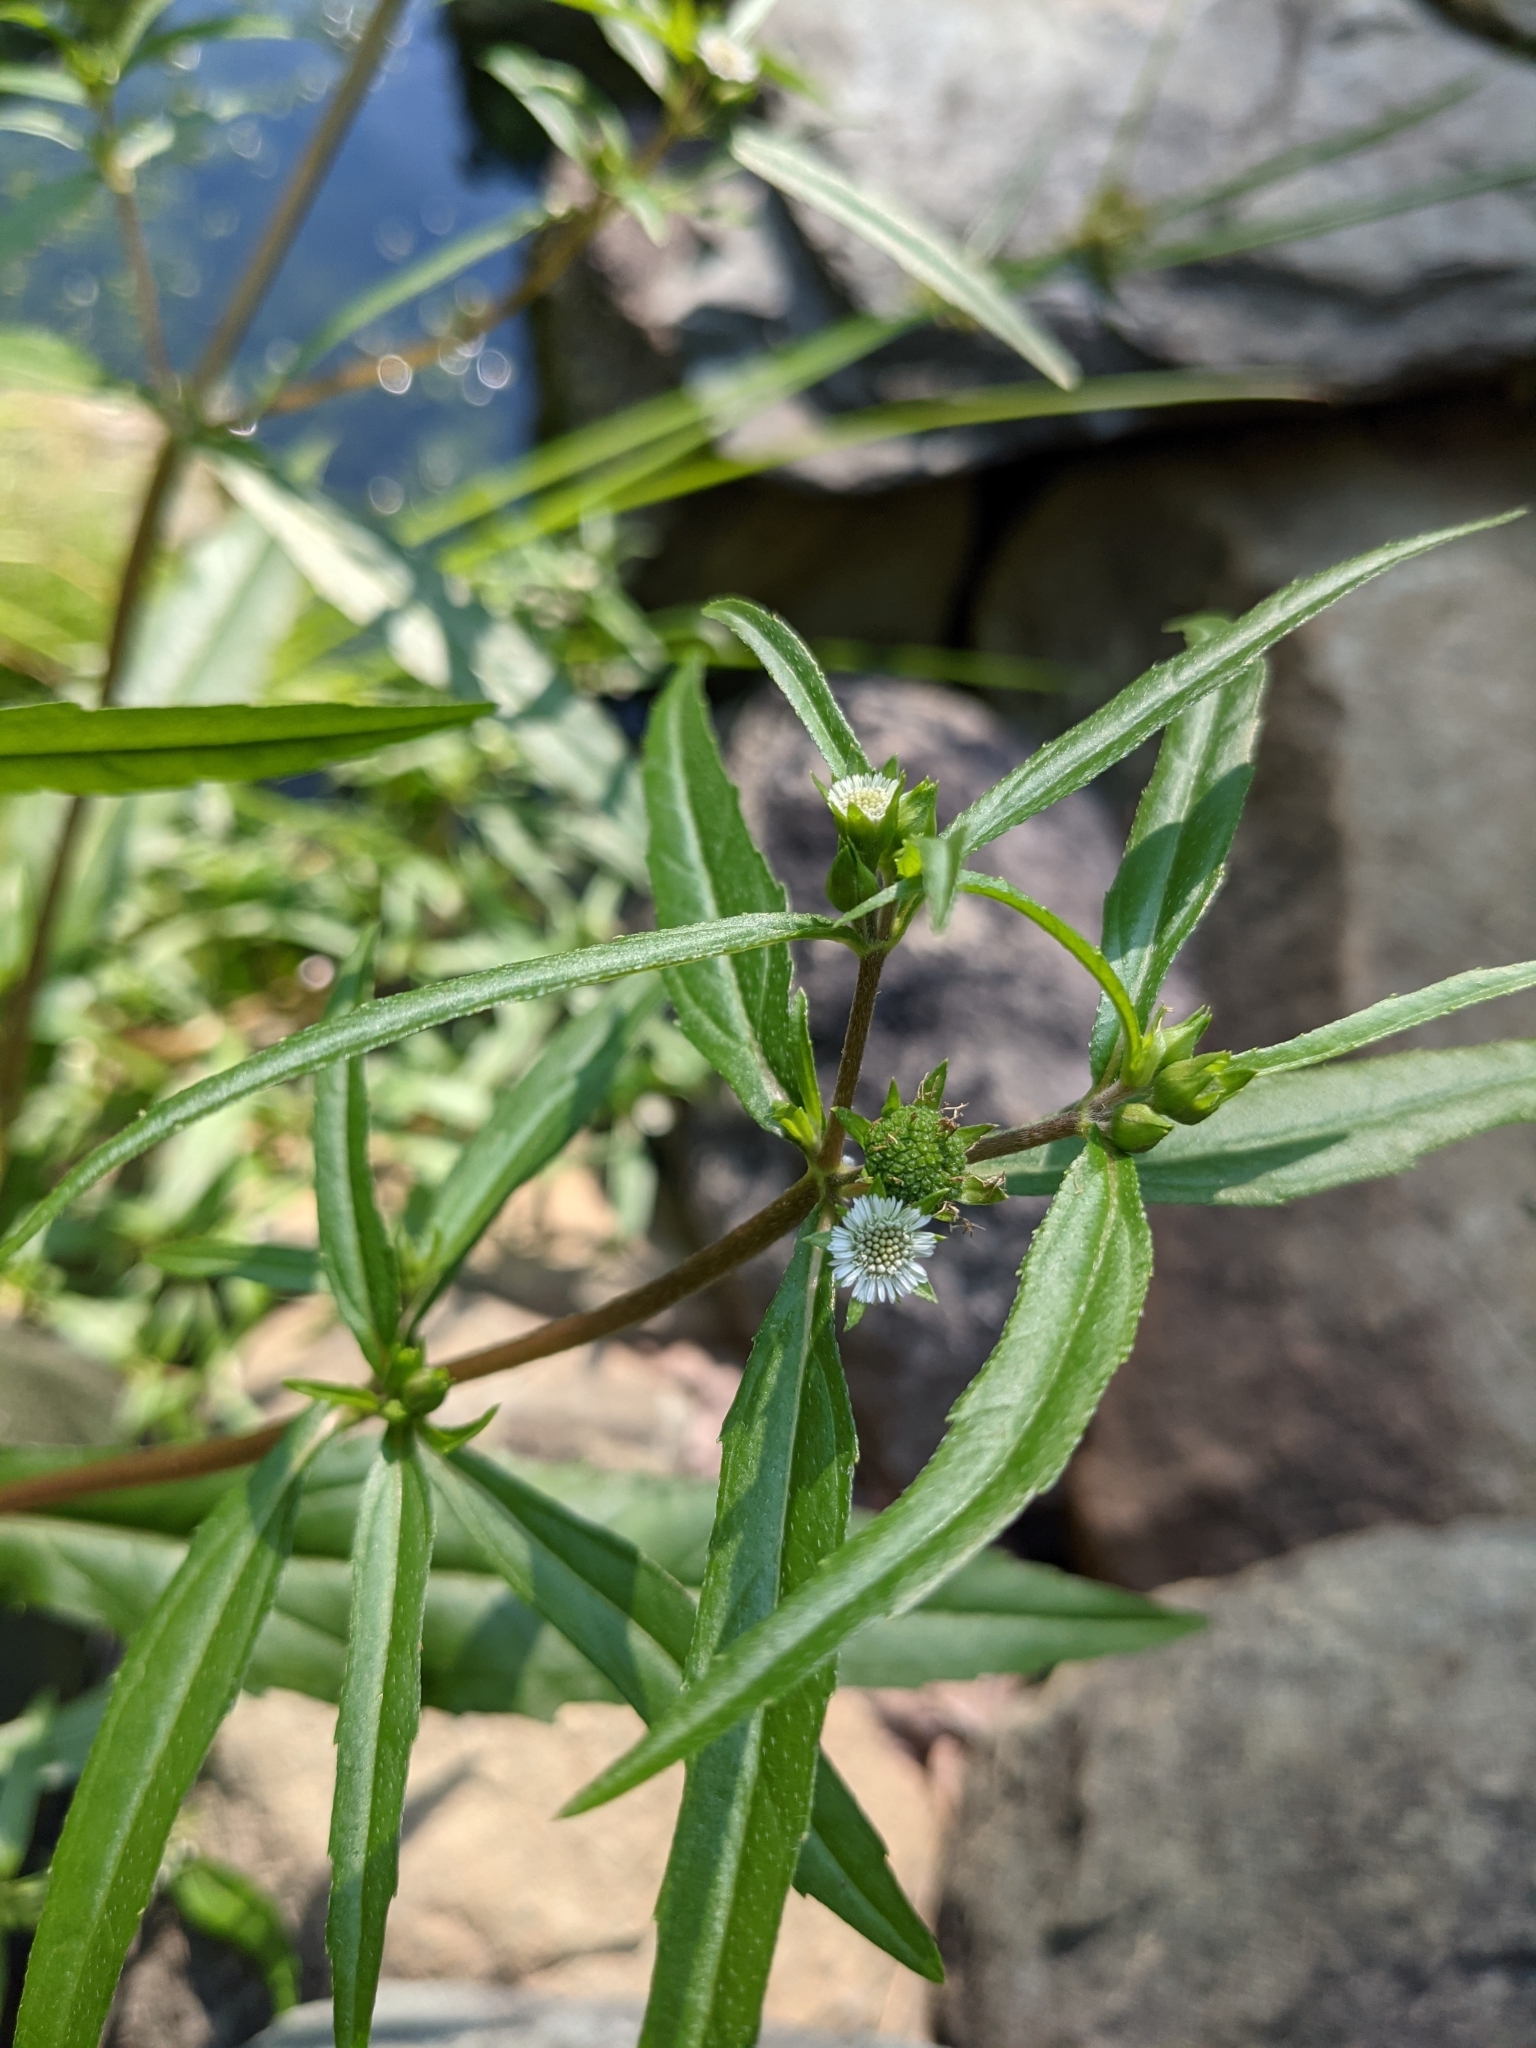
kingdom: Plantae
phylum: Tracheophyta
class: Magnoliopsida
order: Asterales
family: Asteraceae
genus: Eclipta
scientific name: Eclipta prostrata
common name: False daisy
